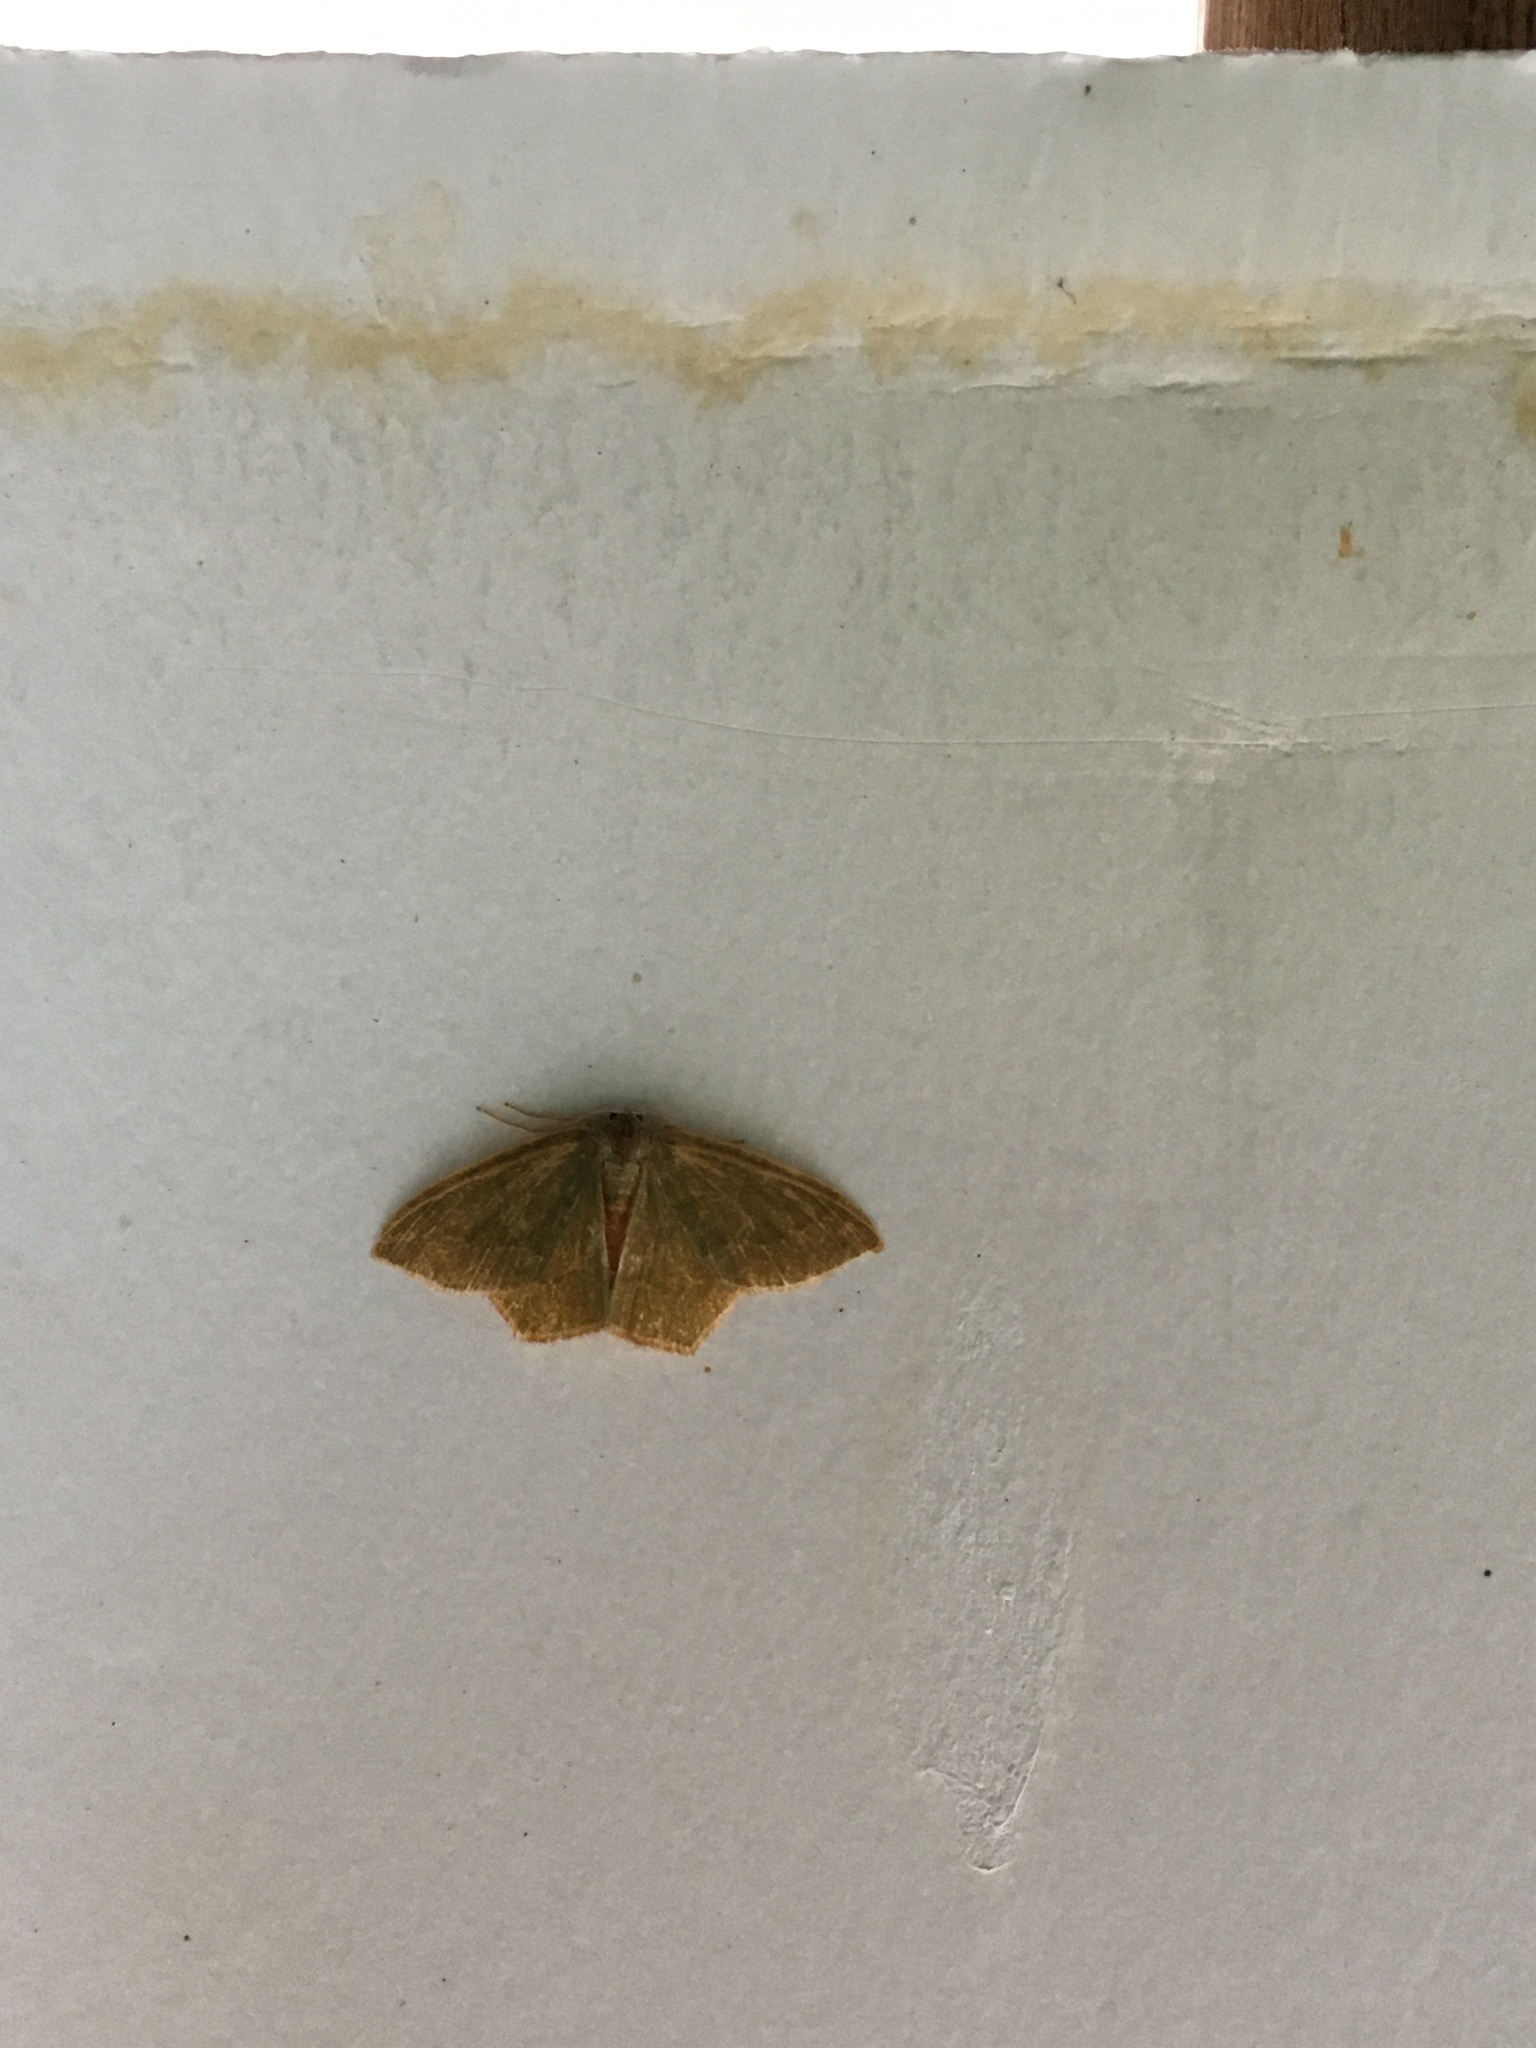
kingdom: Animalia
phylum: Arthropoda
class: Insecta
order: Lepidoptera
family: Geometridae
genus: Thalera
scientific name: Thalera pistasciaria
